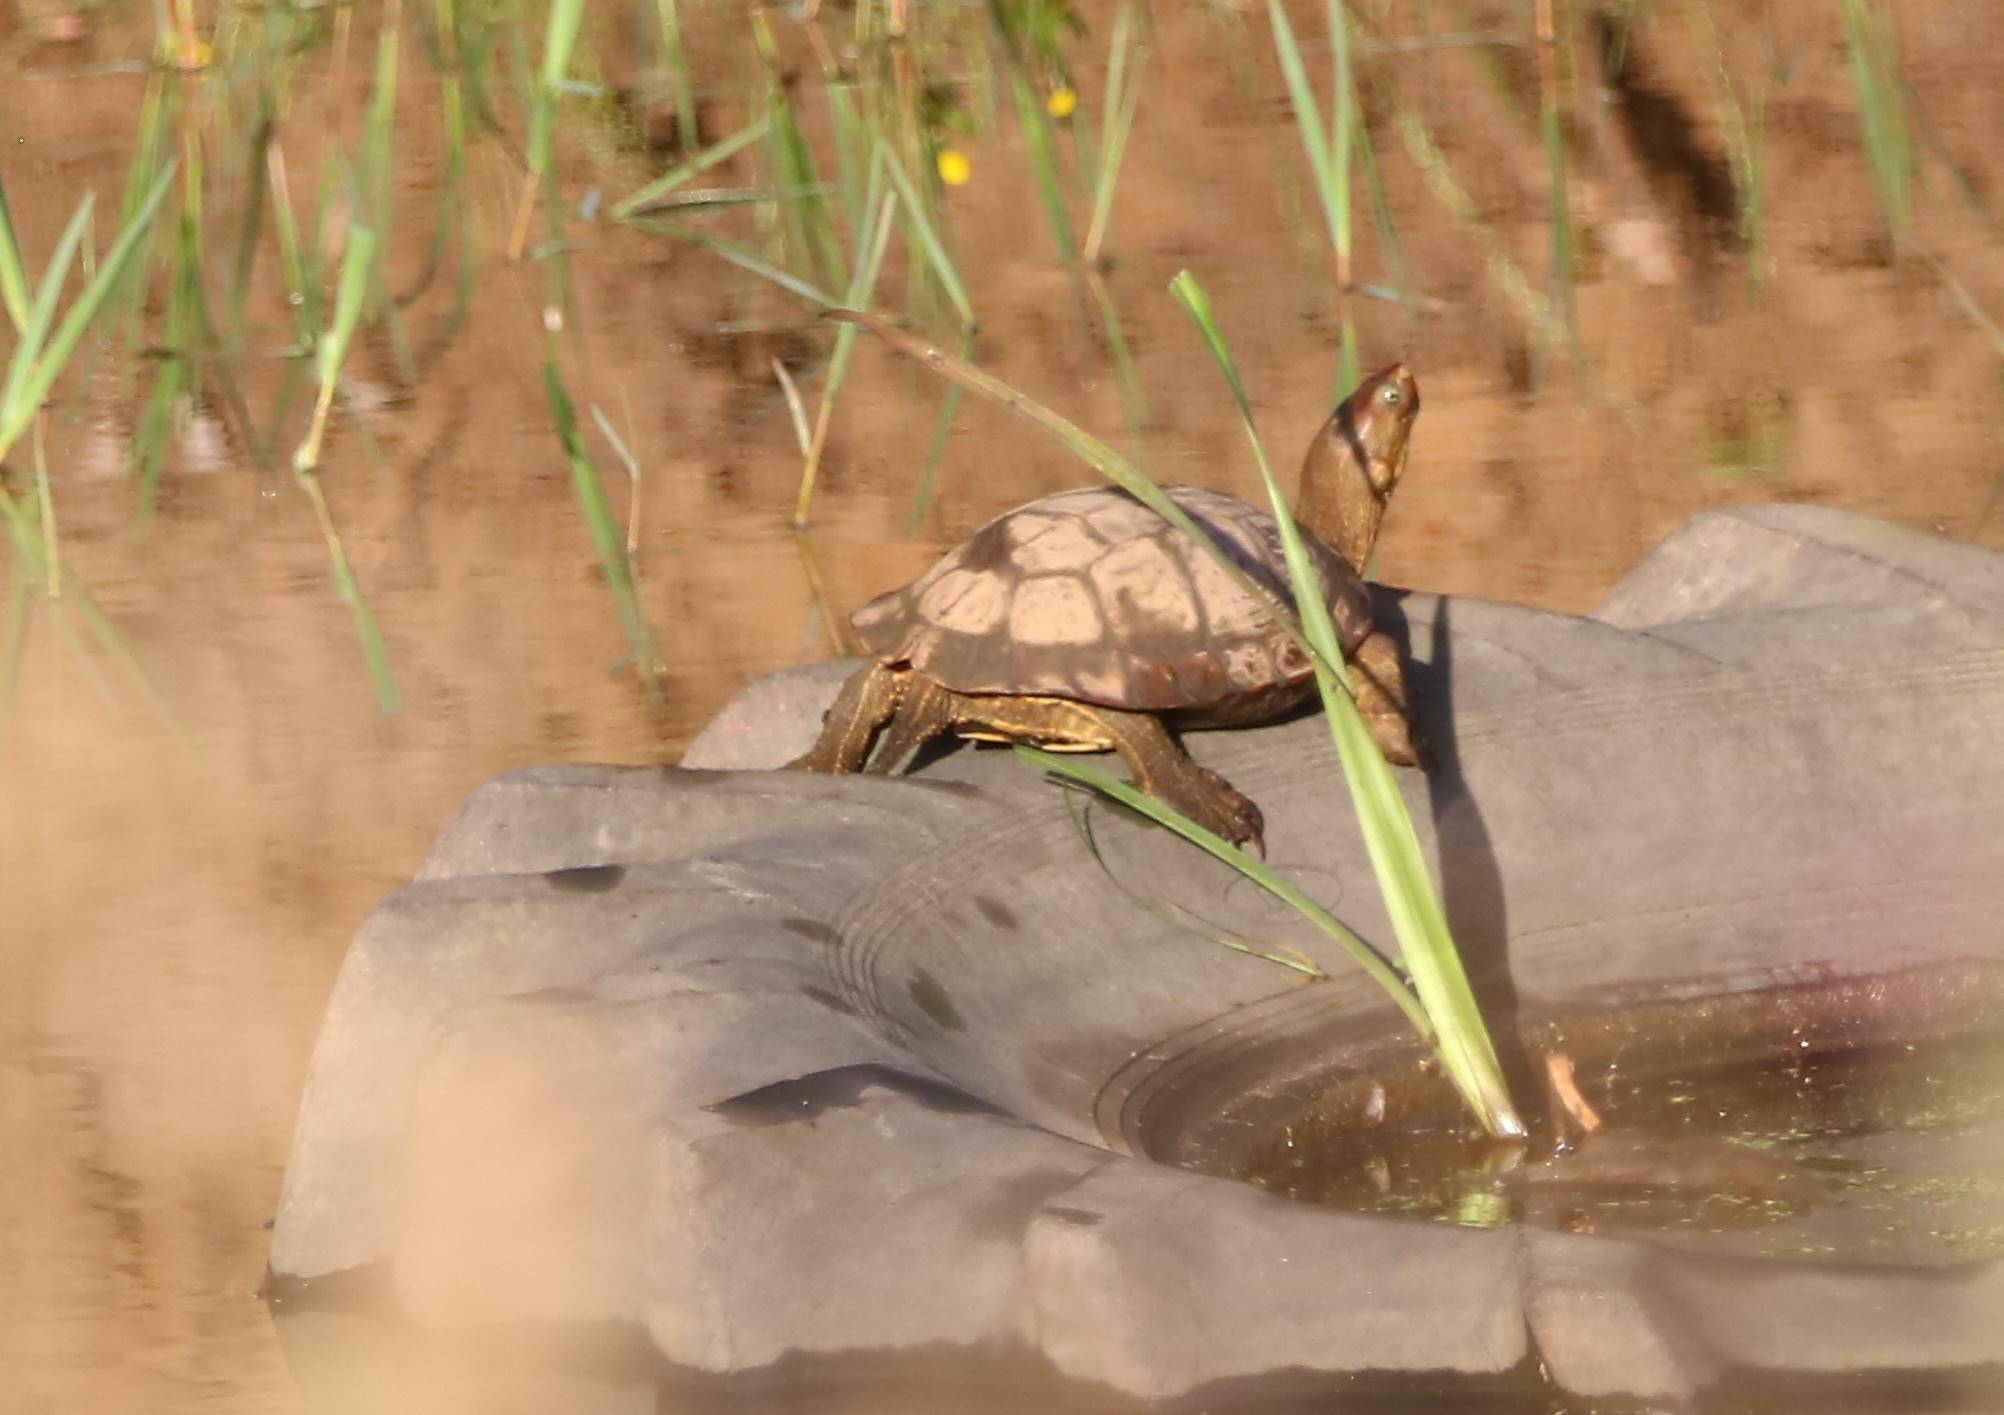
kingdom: Animalia
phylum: Chordata
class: Testudines
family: Geoemydidae
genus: Mauremys
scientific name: Mauremys leprosa
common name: Mediterranean pond turtle
